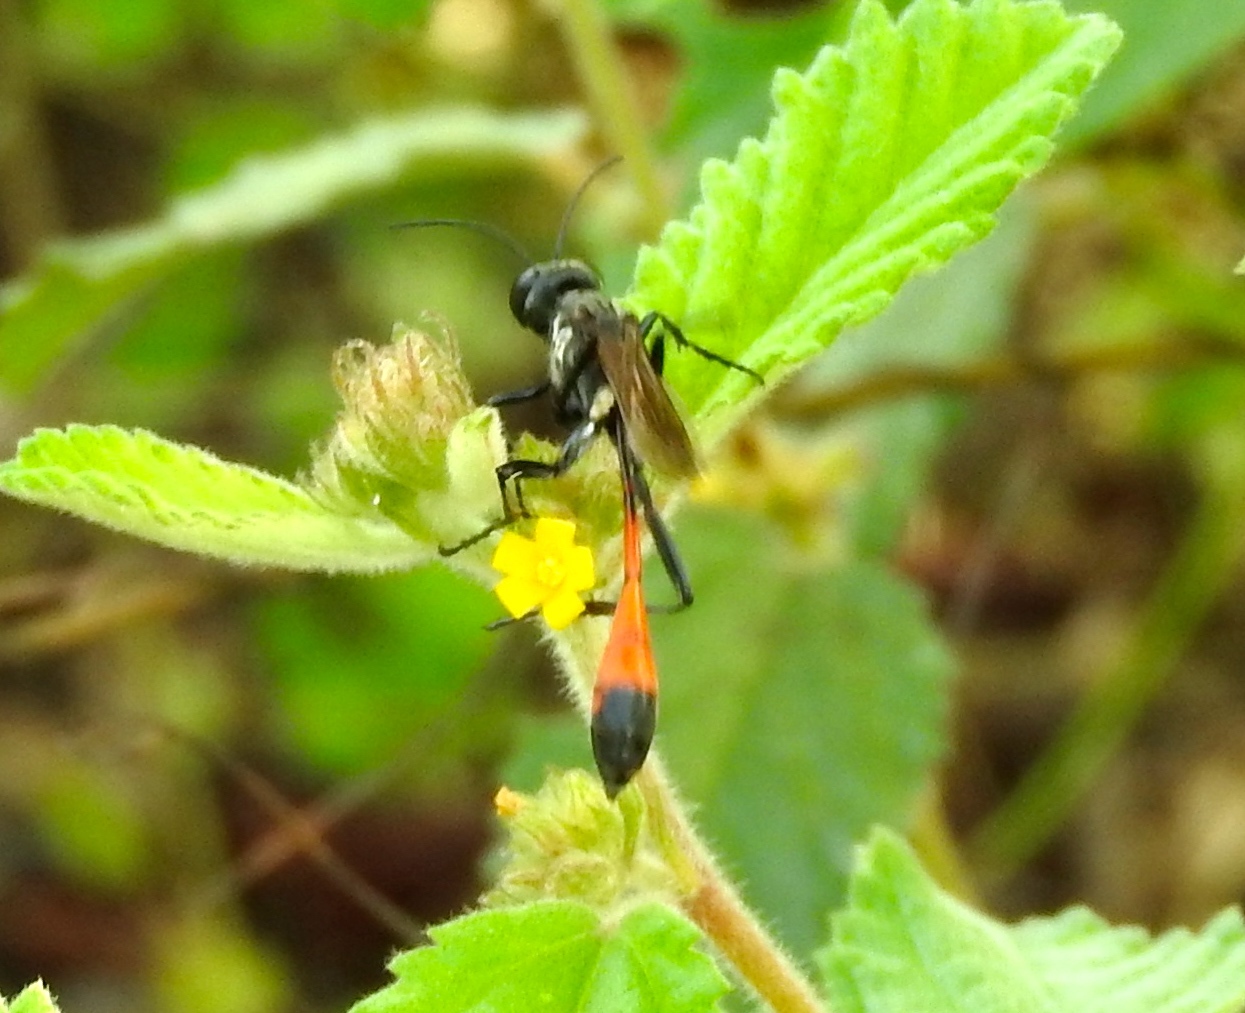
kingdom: Animalia
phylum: Arthropoda
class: Insecta
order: Hymenoptera
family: Sphecidae
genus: Ammophila
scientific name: Ammophila
